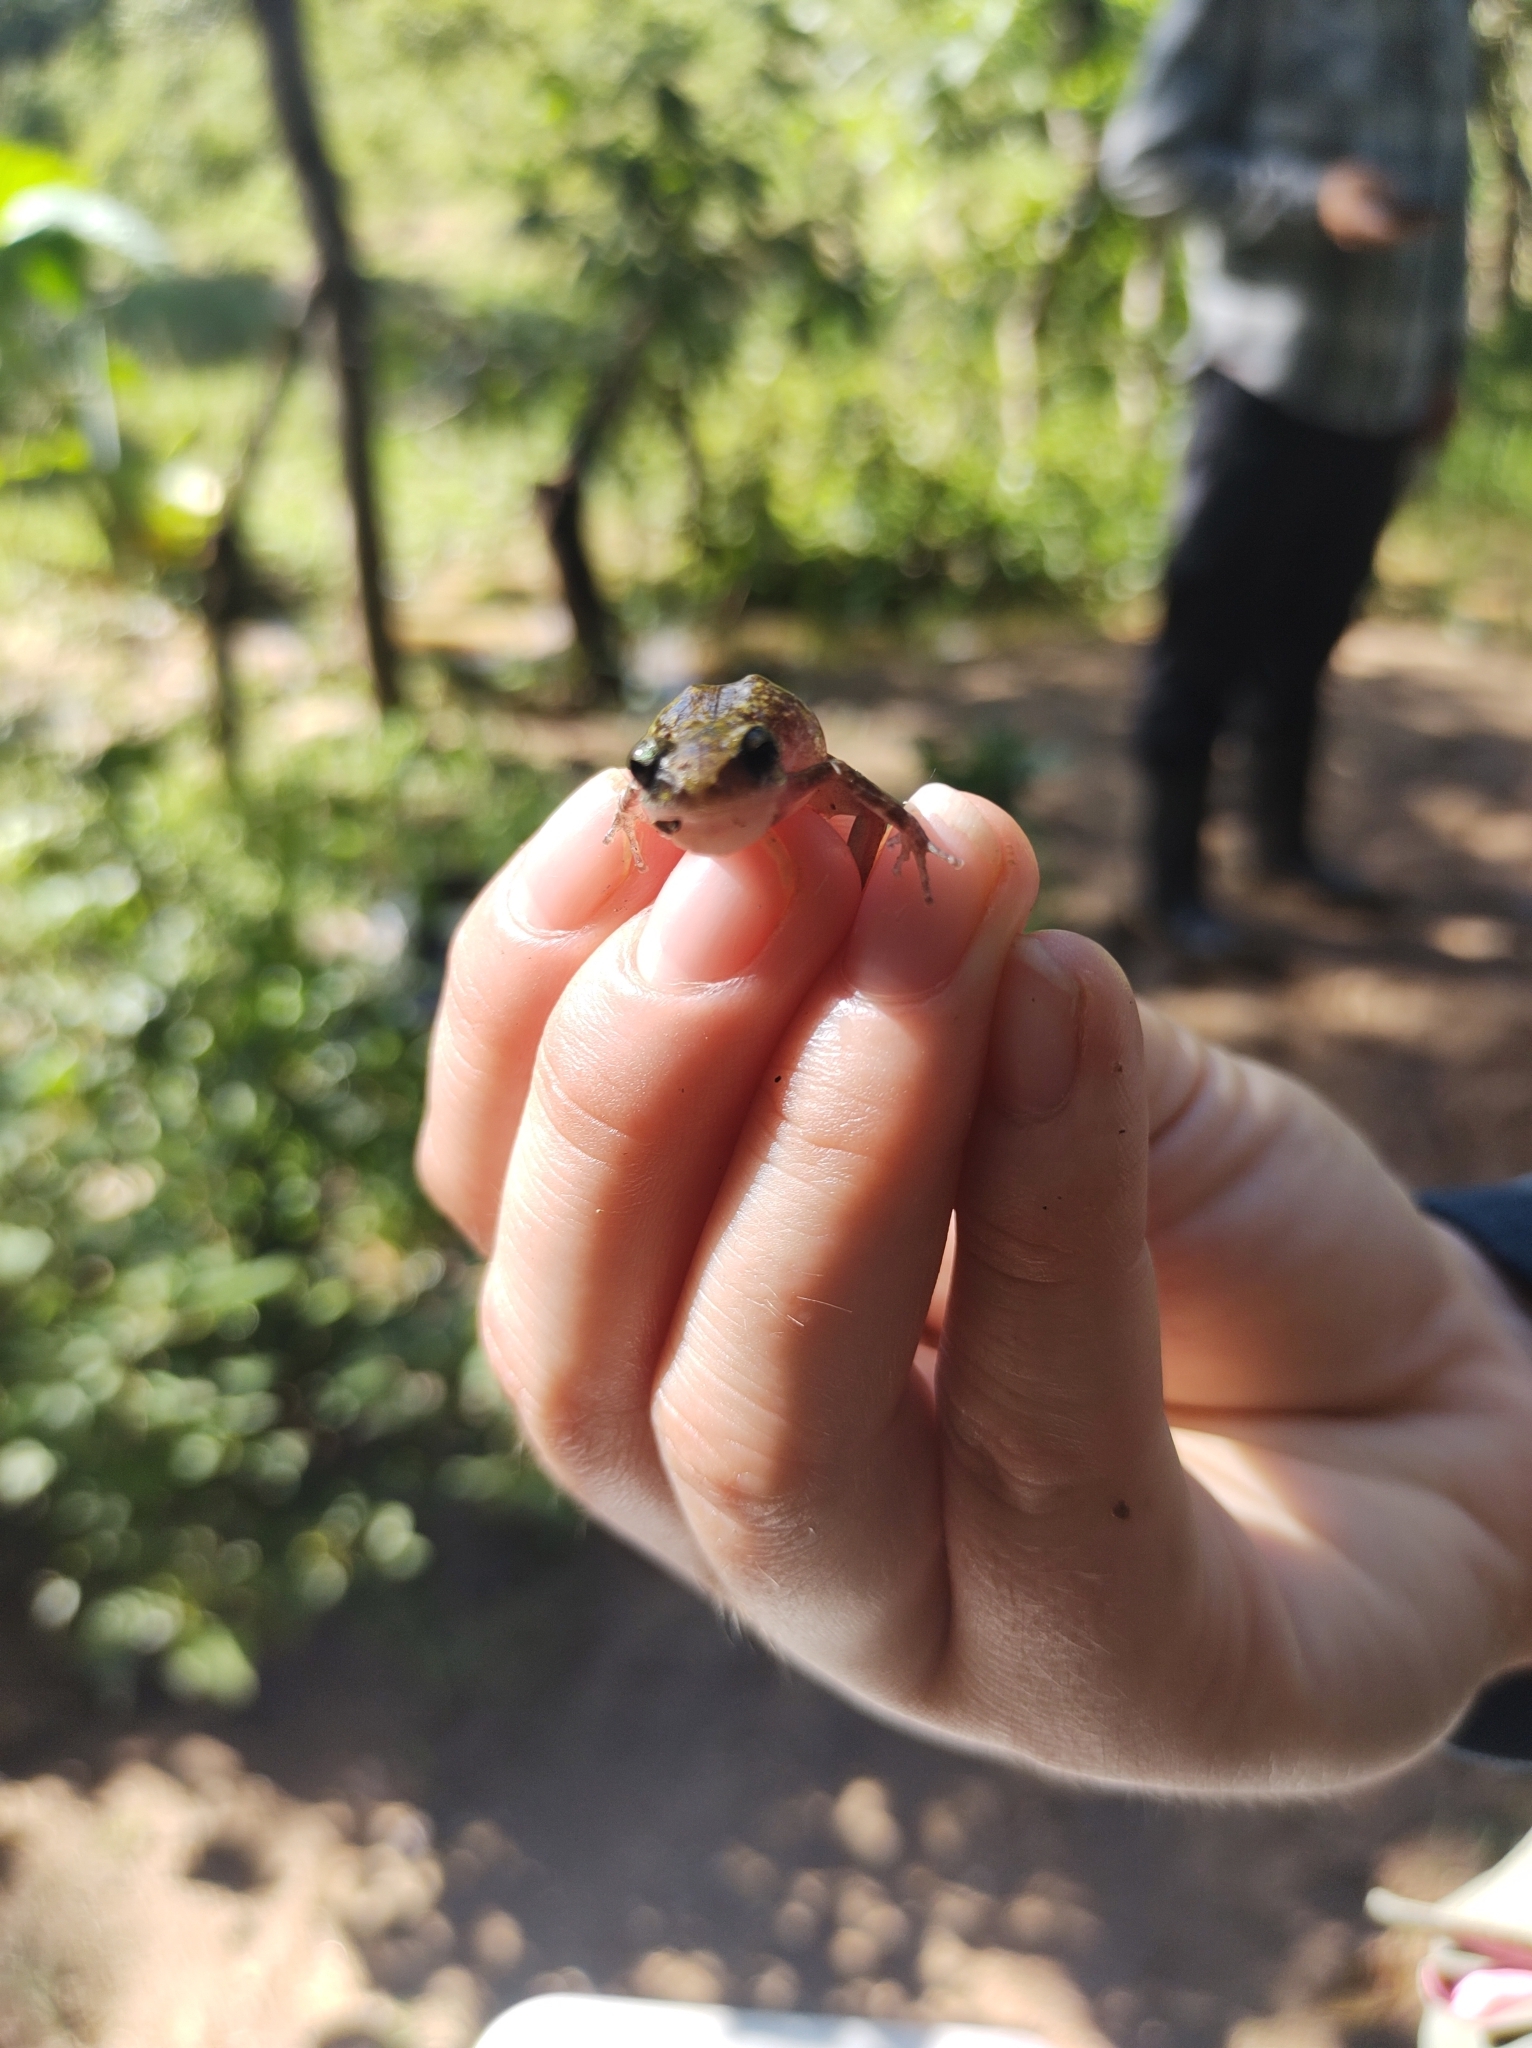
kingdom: Animalia
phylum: Chordata
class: Amphibia
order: Anura
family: Eleutherodactylidae
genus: Eleutherodactylus
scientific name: Eleutherodactylus pipilans
